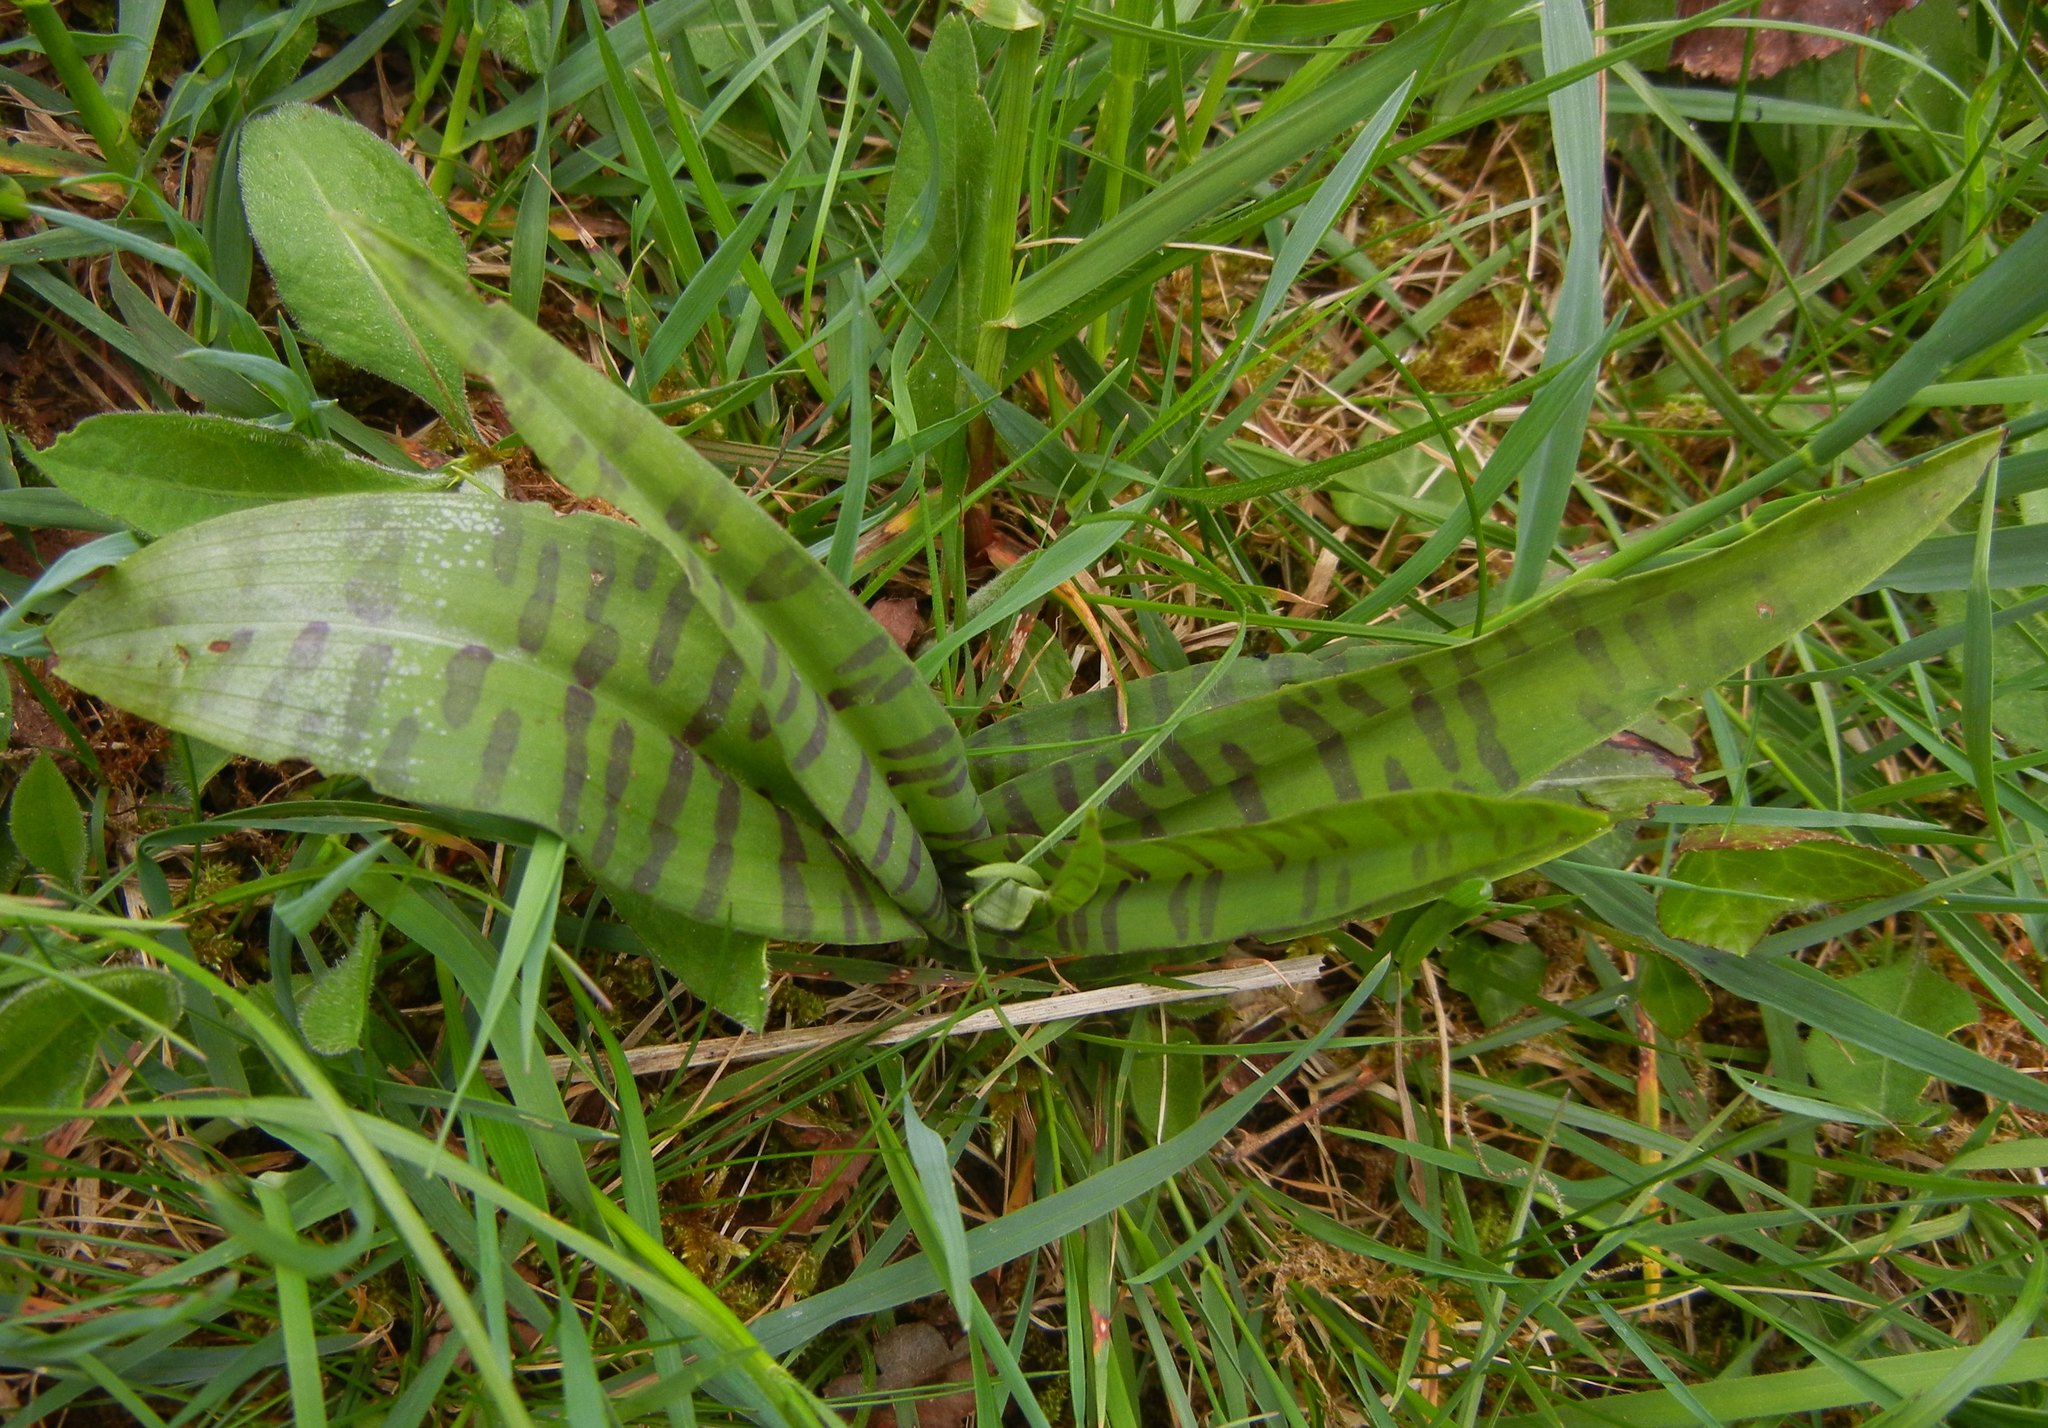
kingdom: Plantae
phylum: Tracheophyta
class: Liliopsida
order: Asparagales
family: Orchidaceae
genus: Dactylorhiza
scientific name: Dactylorhiza maculata
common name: Heath spotted-orchid
